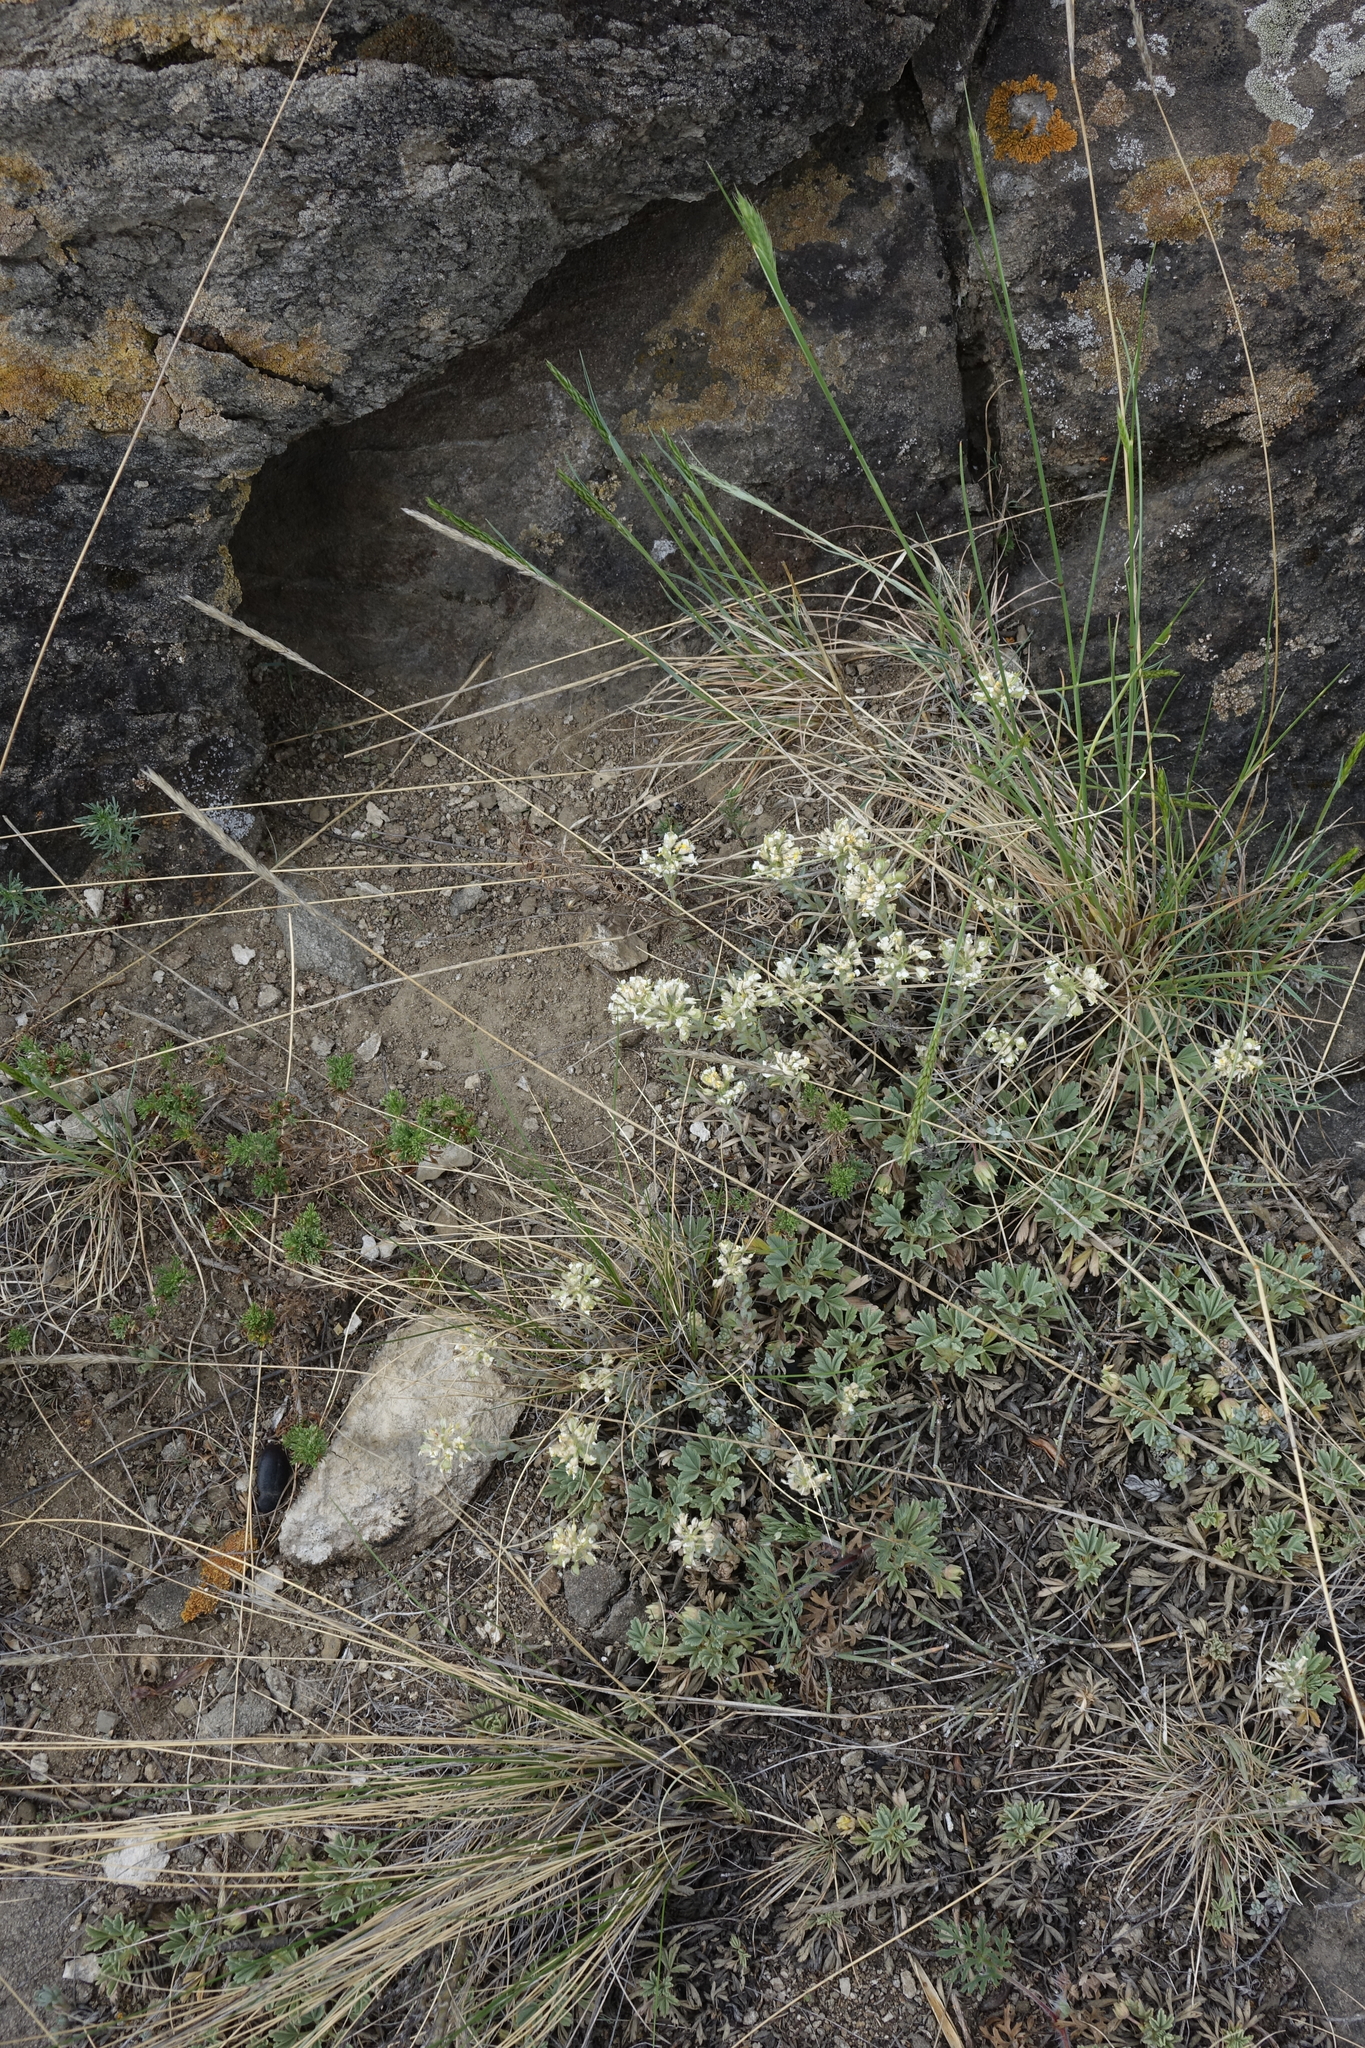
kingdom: Plantae
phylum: Tracheophyta
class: Magnoliopsida
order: Brassicales
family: Brassicaceae
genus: Alyssum
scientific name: Alyssum lenense
